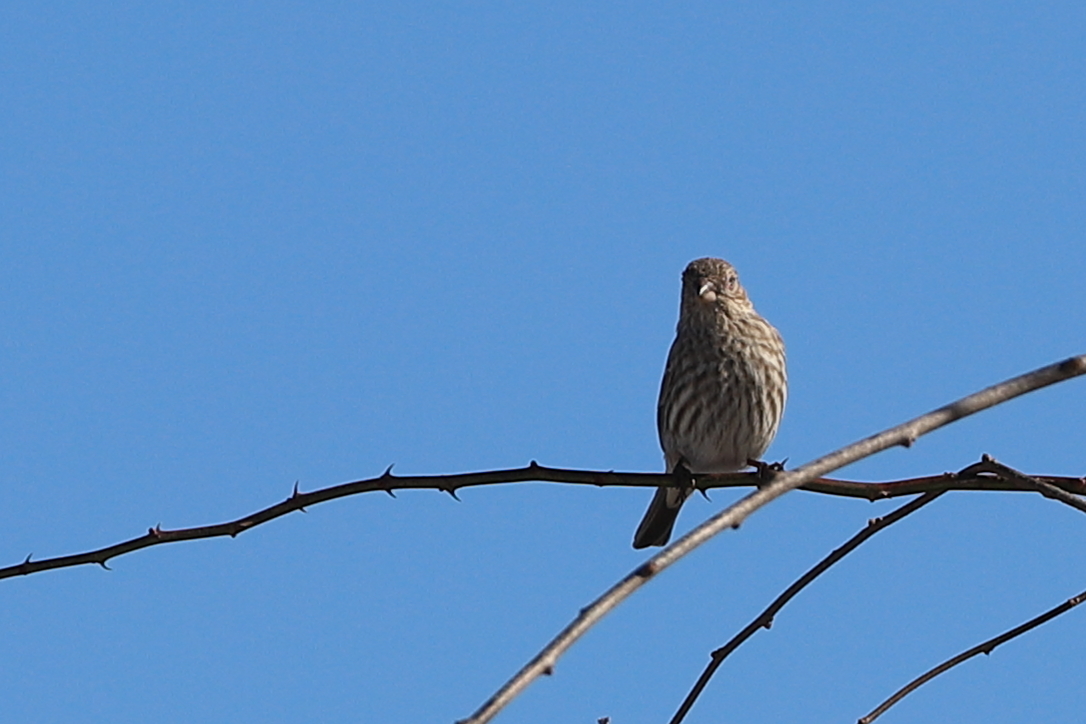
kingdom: Animalia
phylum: Chordata
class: Aves
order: Passeriformes
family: Fringillidae
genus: Haemorhous
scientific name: Haemorhous mexicanus
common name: House finch
